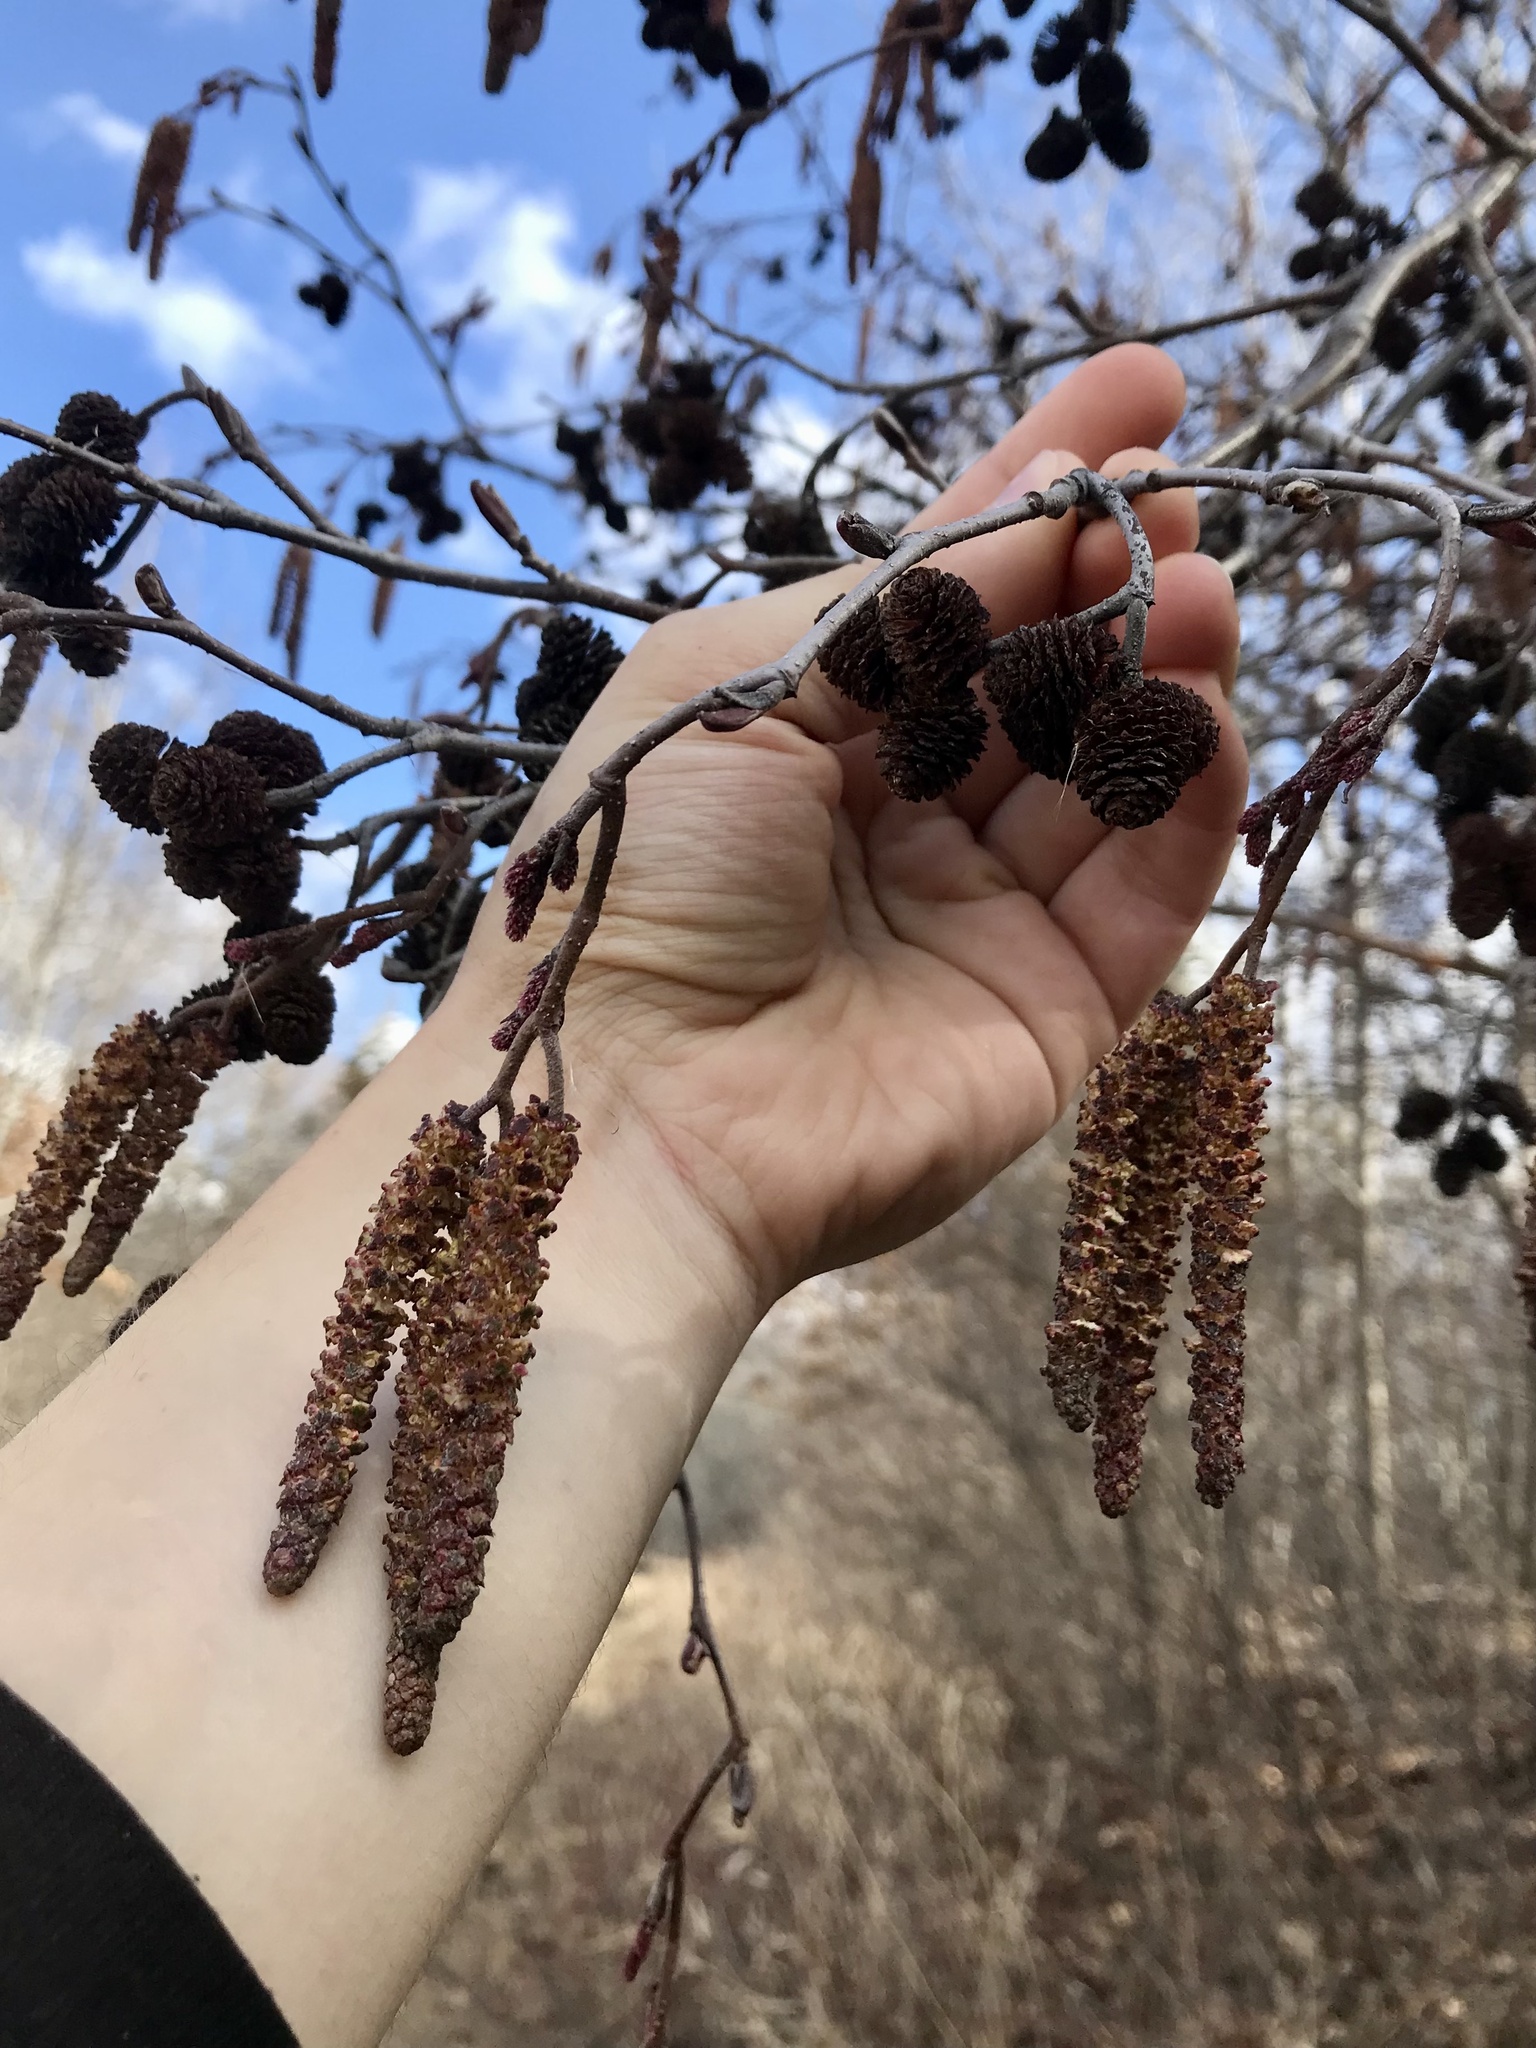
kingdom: Plantae
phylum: Tracheophyta
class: Magnoliopsida
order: Fagales
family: Betulaceae
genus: Alnus
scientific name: Alnus incana
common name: Grey alder
